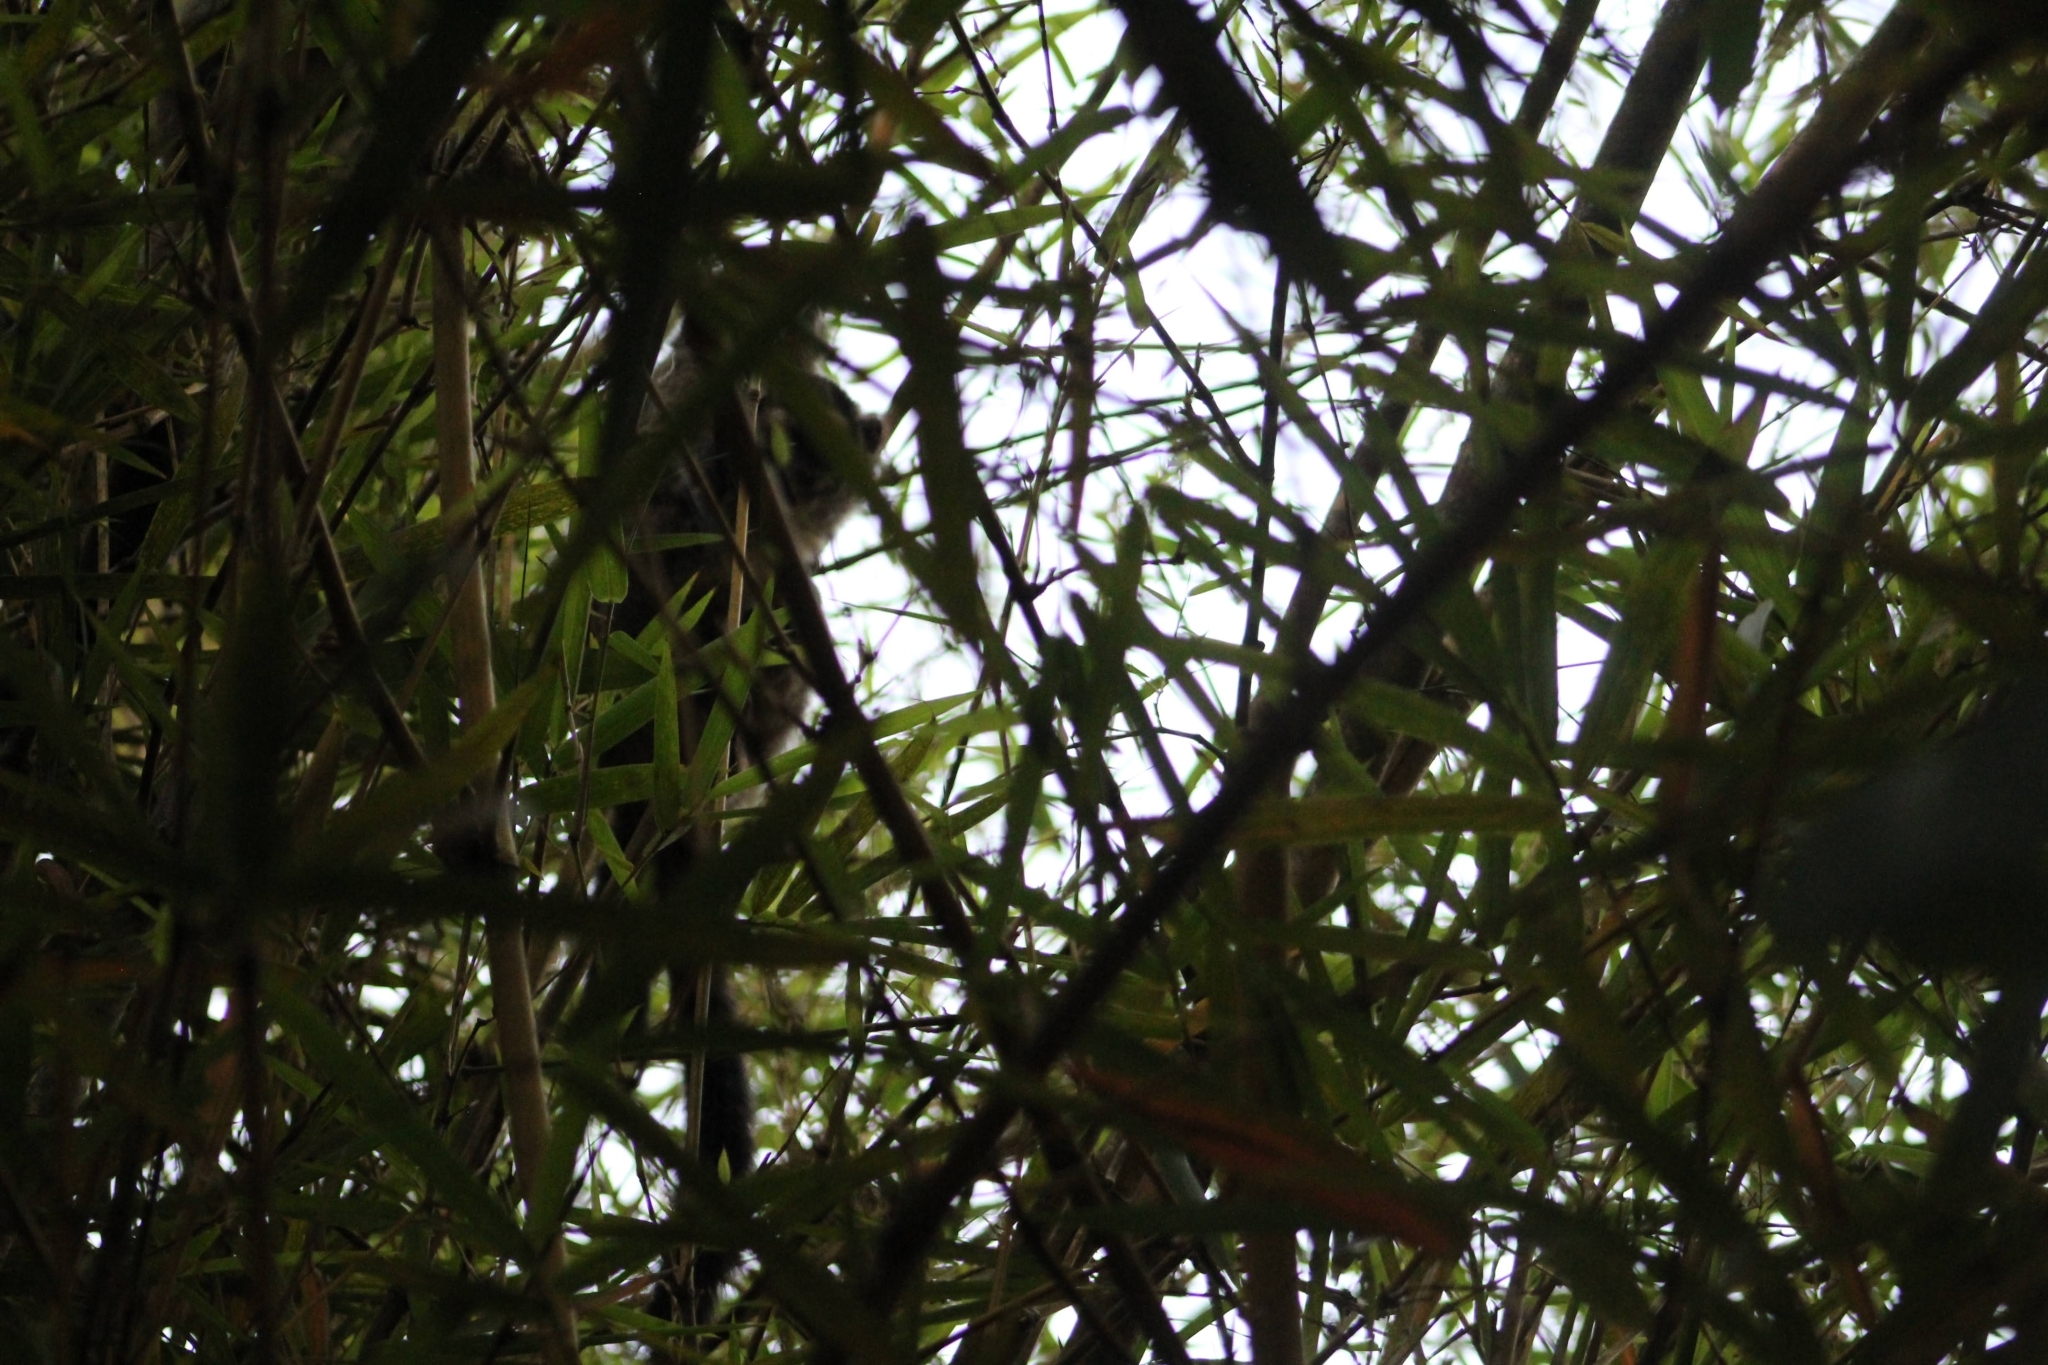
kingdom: Animalia
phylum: Chordata
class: Mammalia
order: Primates
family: Aotidae
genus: Aotus
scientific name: Aotus brumbacki
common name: Brumback's night monkey
